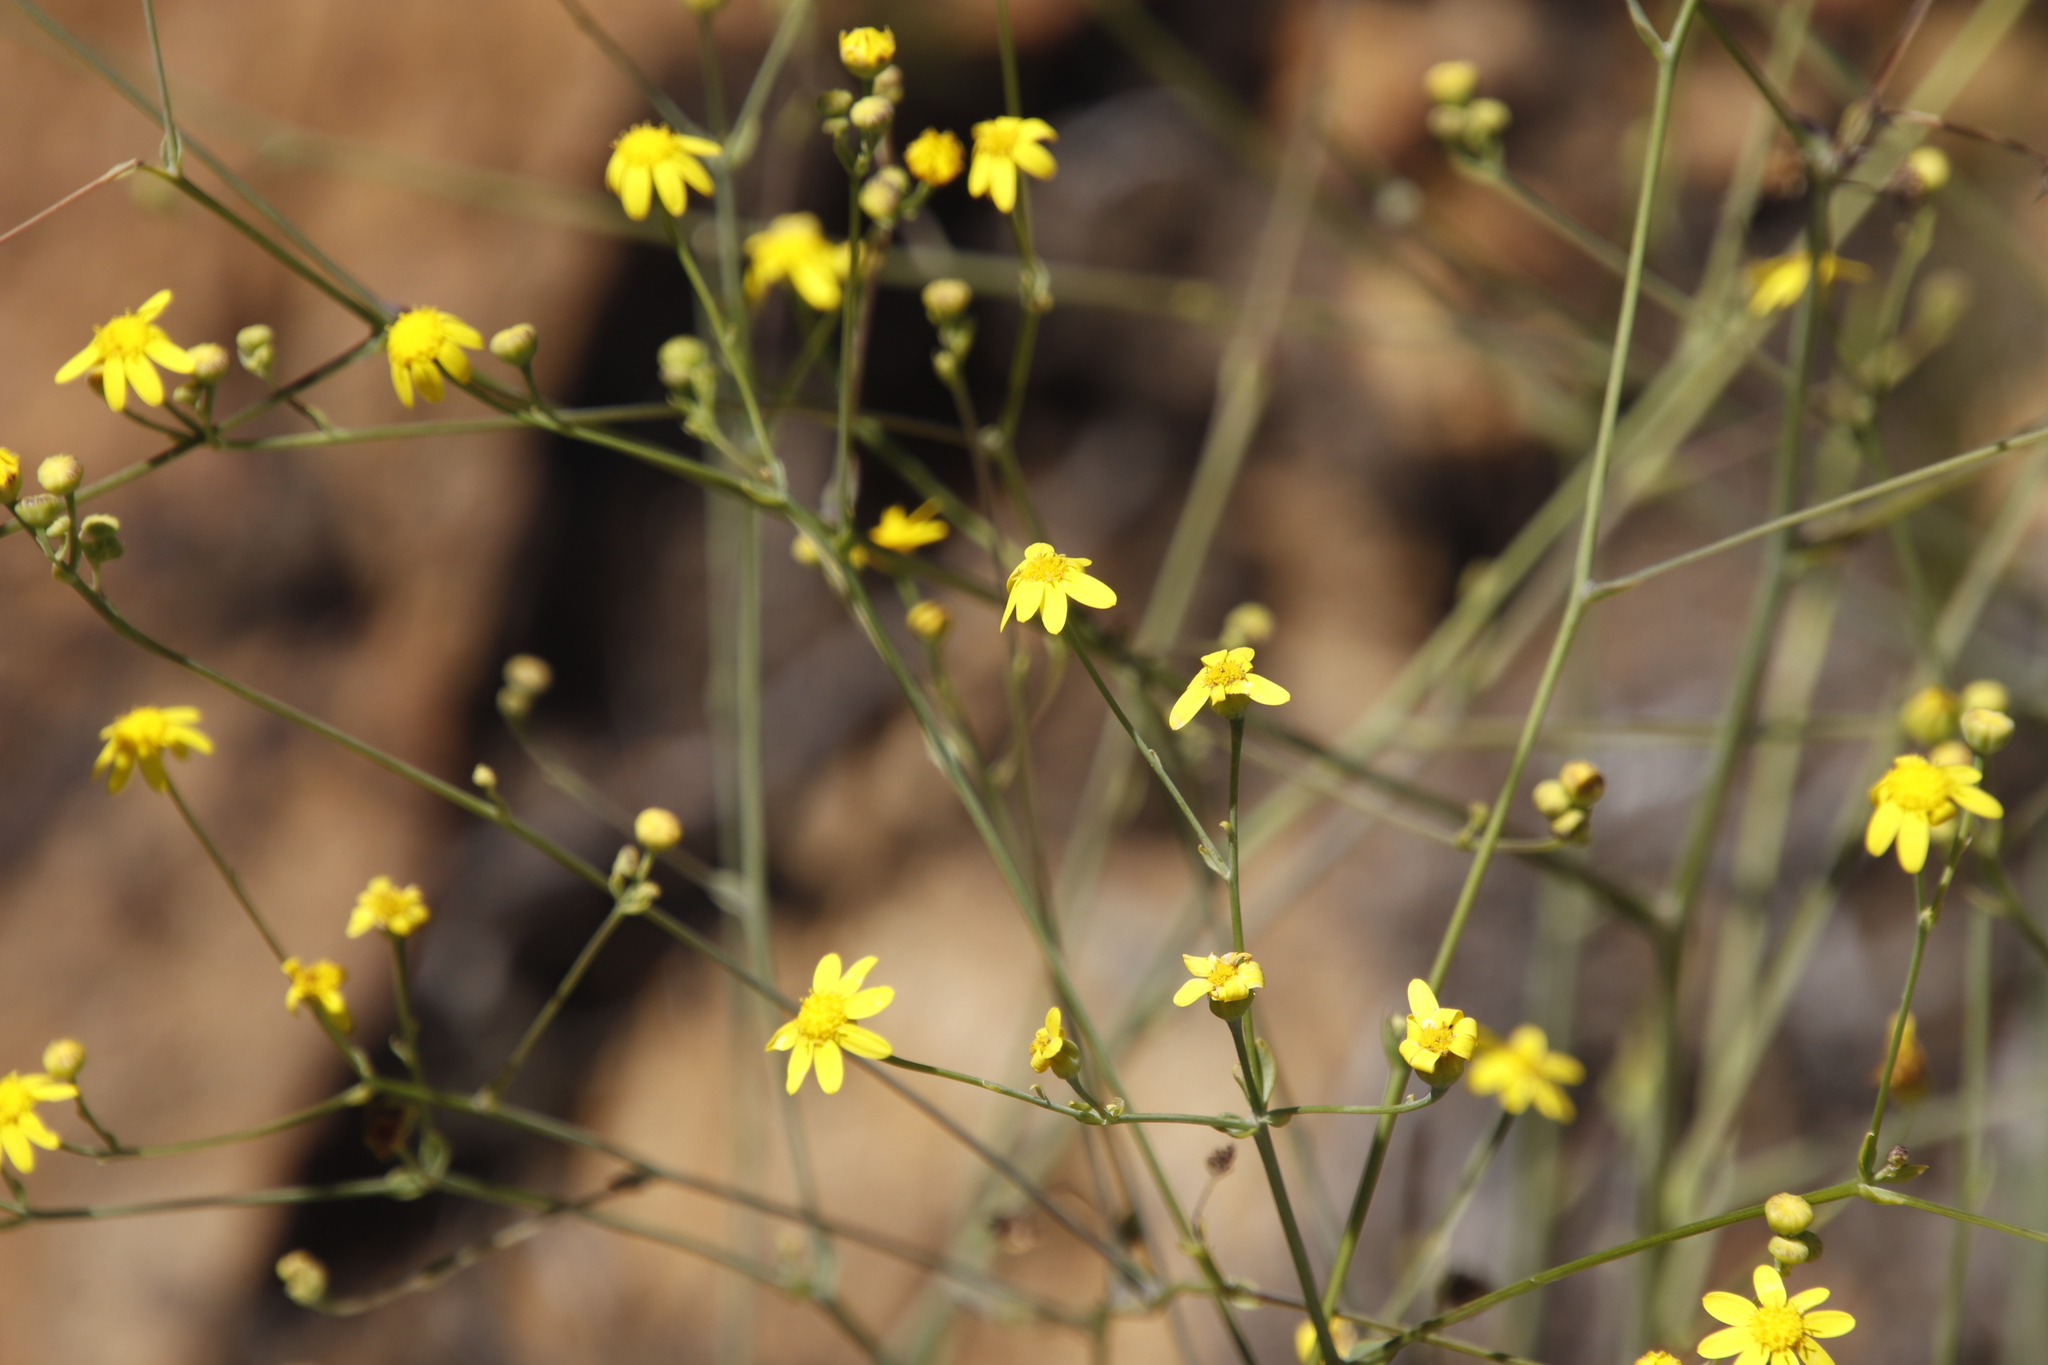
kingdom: Plantae
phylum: Tracheophyta
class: Magnoliopsida
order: Asterales
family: Asteraceae
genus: Othonna
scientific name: Othonna quinquedentata
